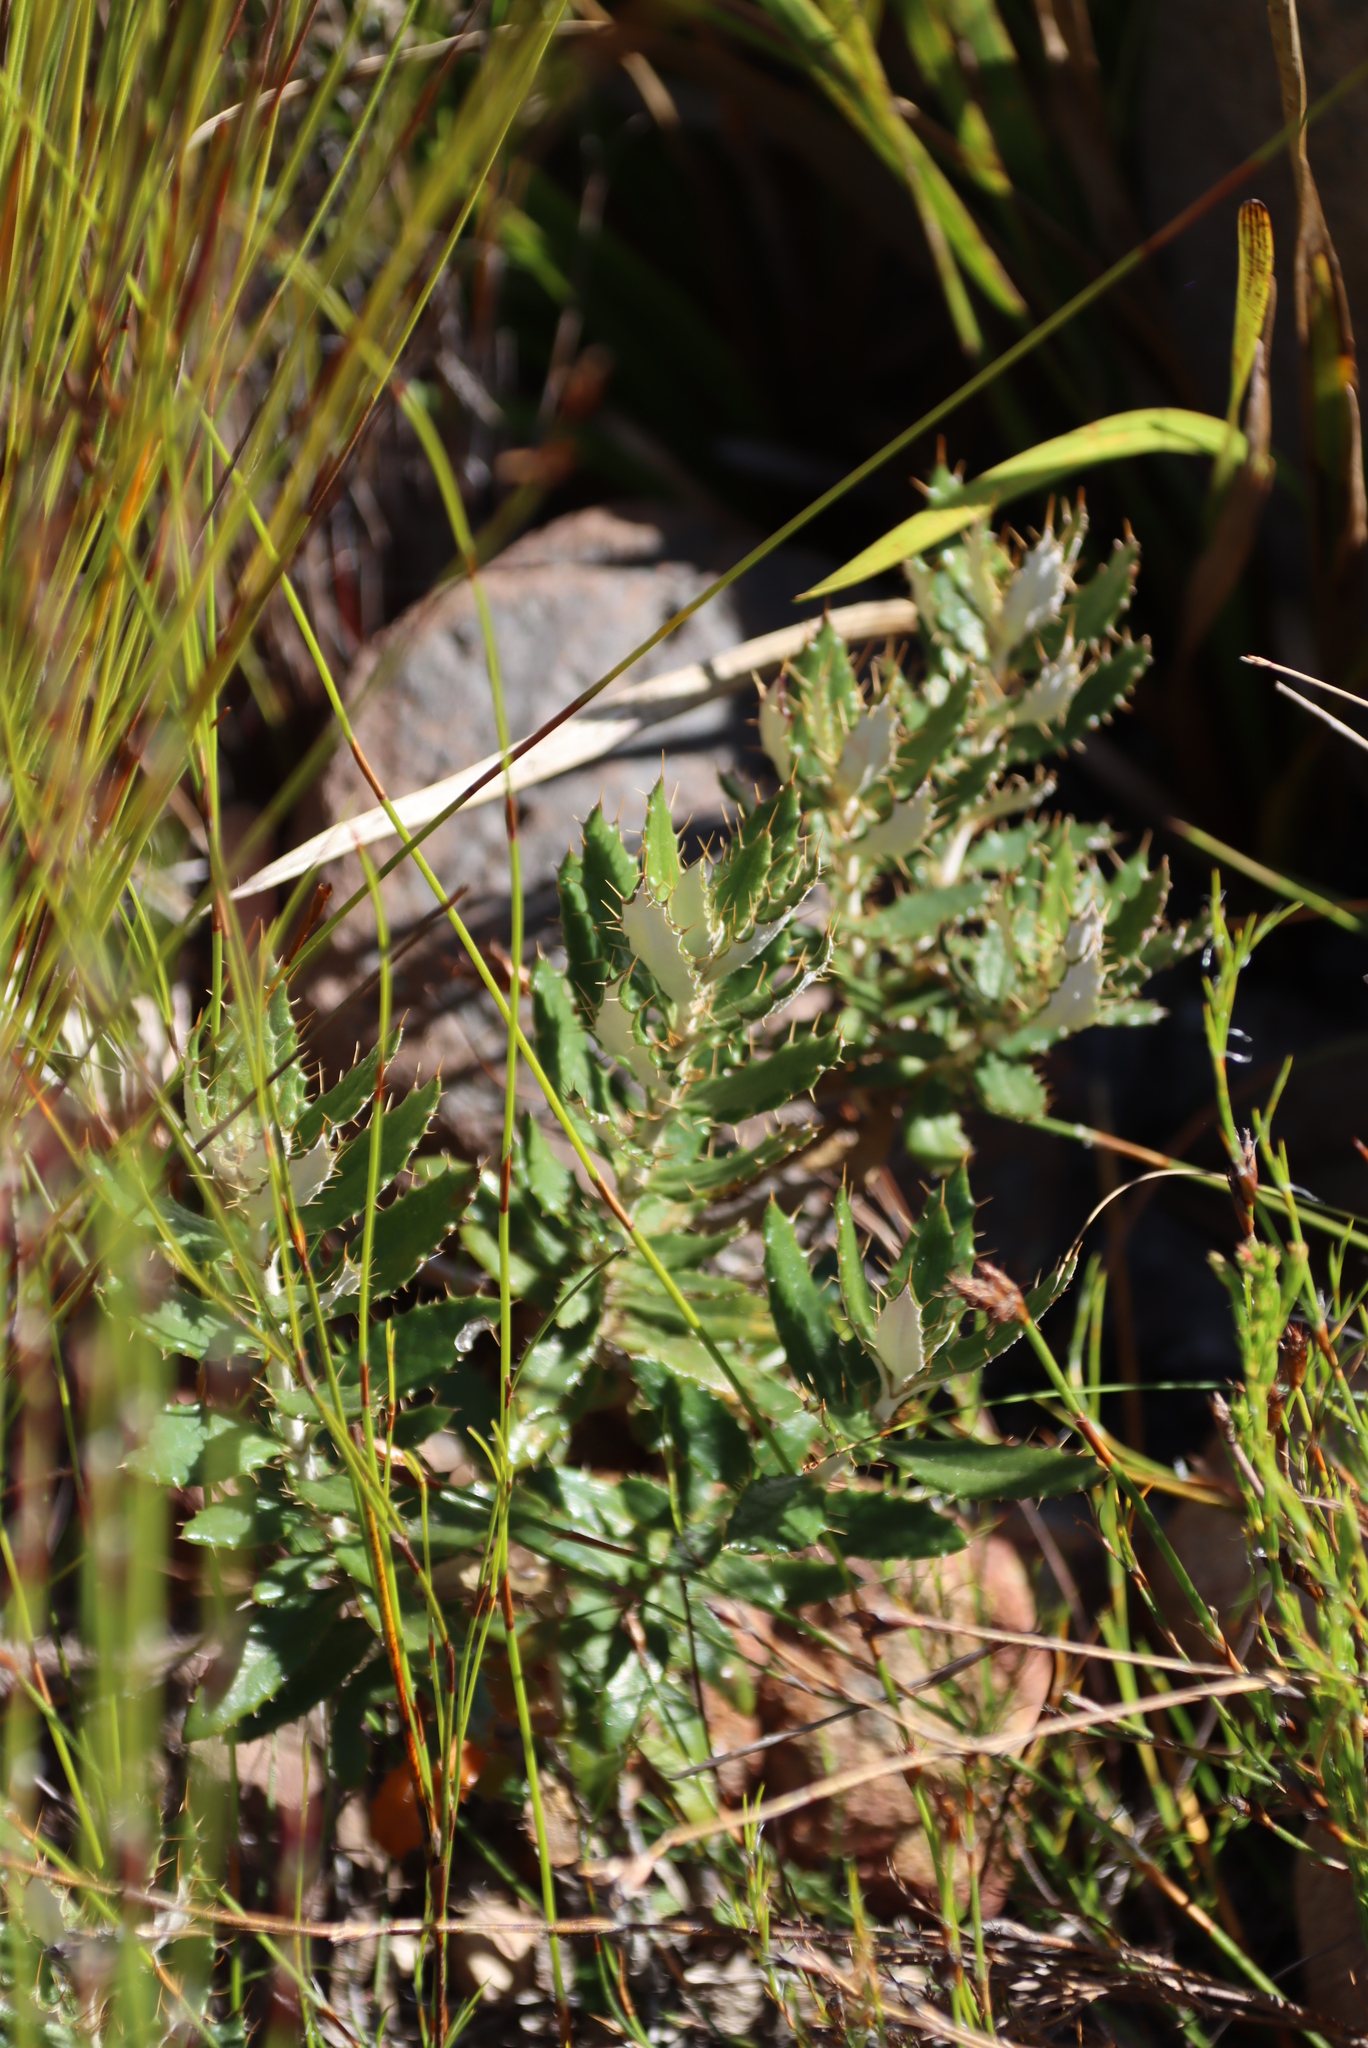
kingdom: Plantae
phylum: Tracheophyta
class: Magnoliopsida
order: Asterales
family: Asteraceae
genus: Berkheya
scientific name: Berkheya barbata
